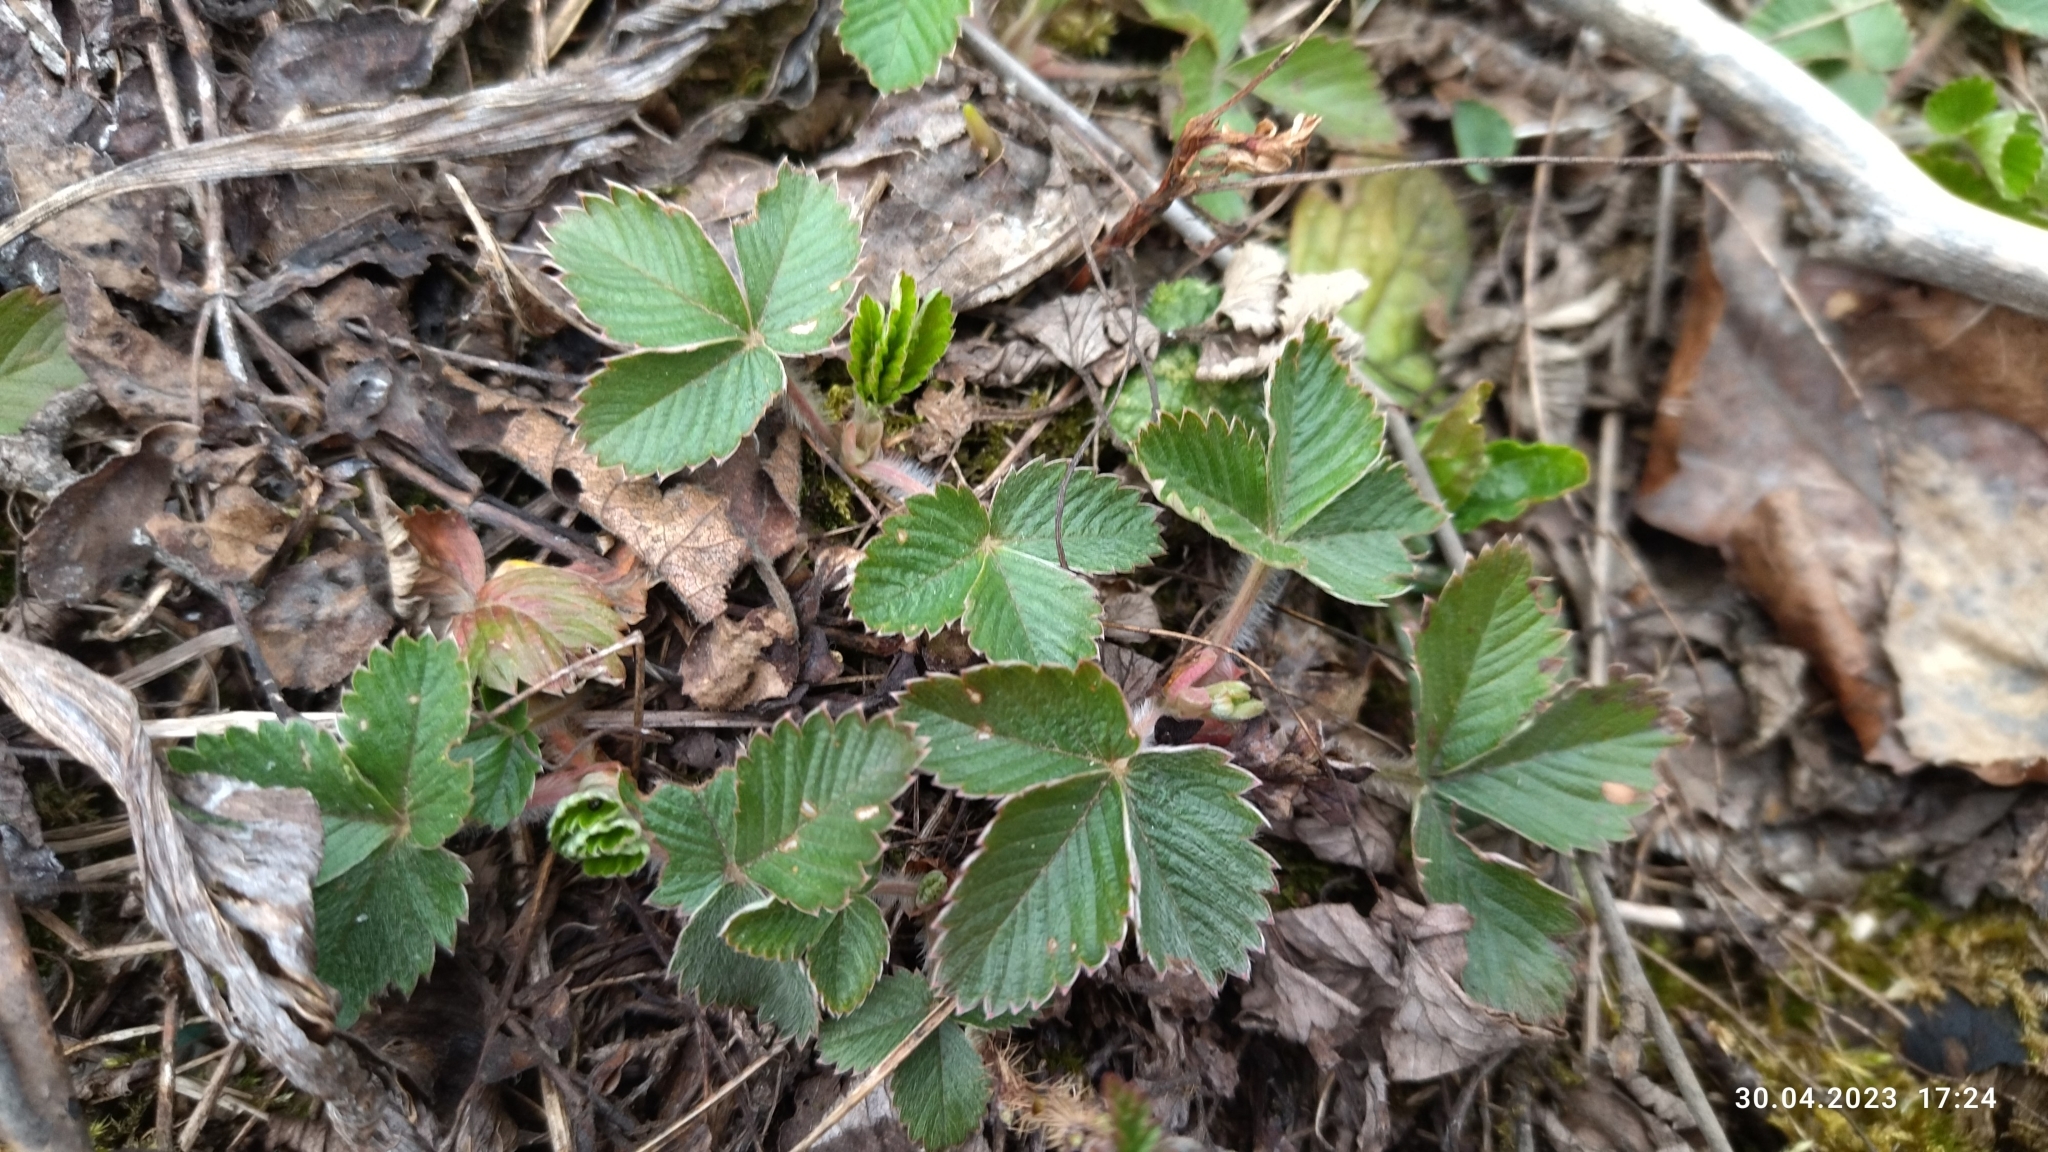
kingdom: Plantae
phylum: Tracheophyta
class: Magnoliopsida
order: Rosales
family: Rosaceae
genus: Fragaria
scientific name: Fragaria vesca
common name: Wild strawberry
